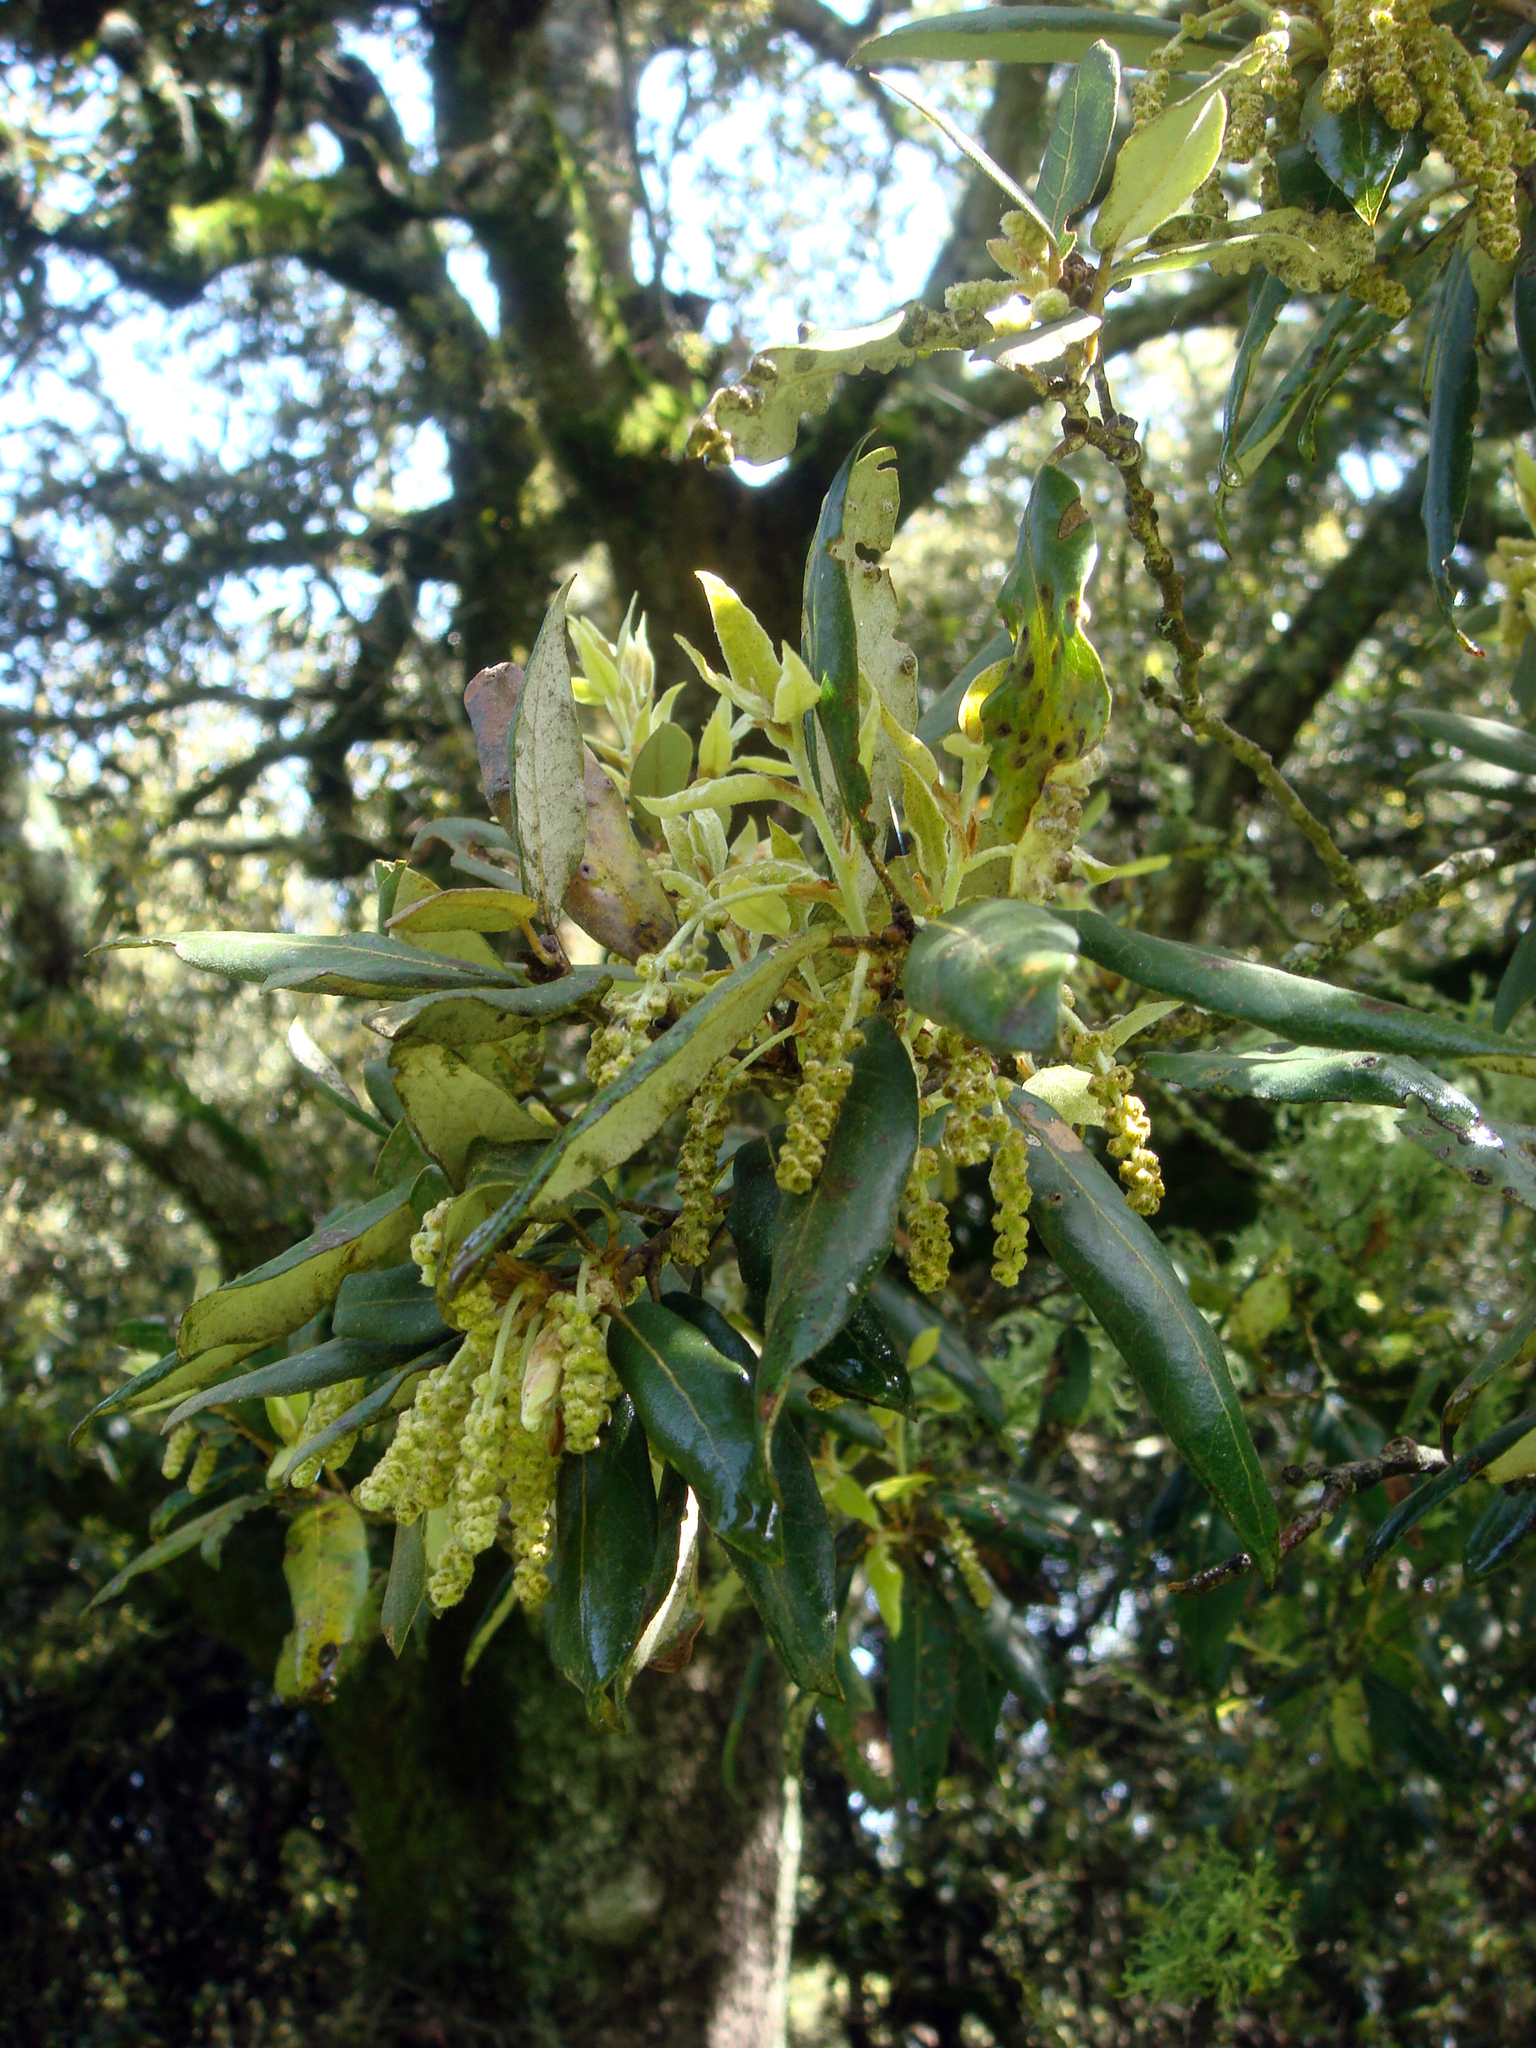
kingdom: Plantae
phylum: Tracheophyta
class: Magnoliopsida
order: Fagales
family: Fagaceae
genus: Quercus
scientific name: Quercus ilex
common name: Evergreen oak
